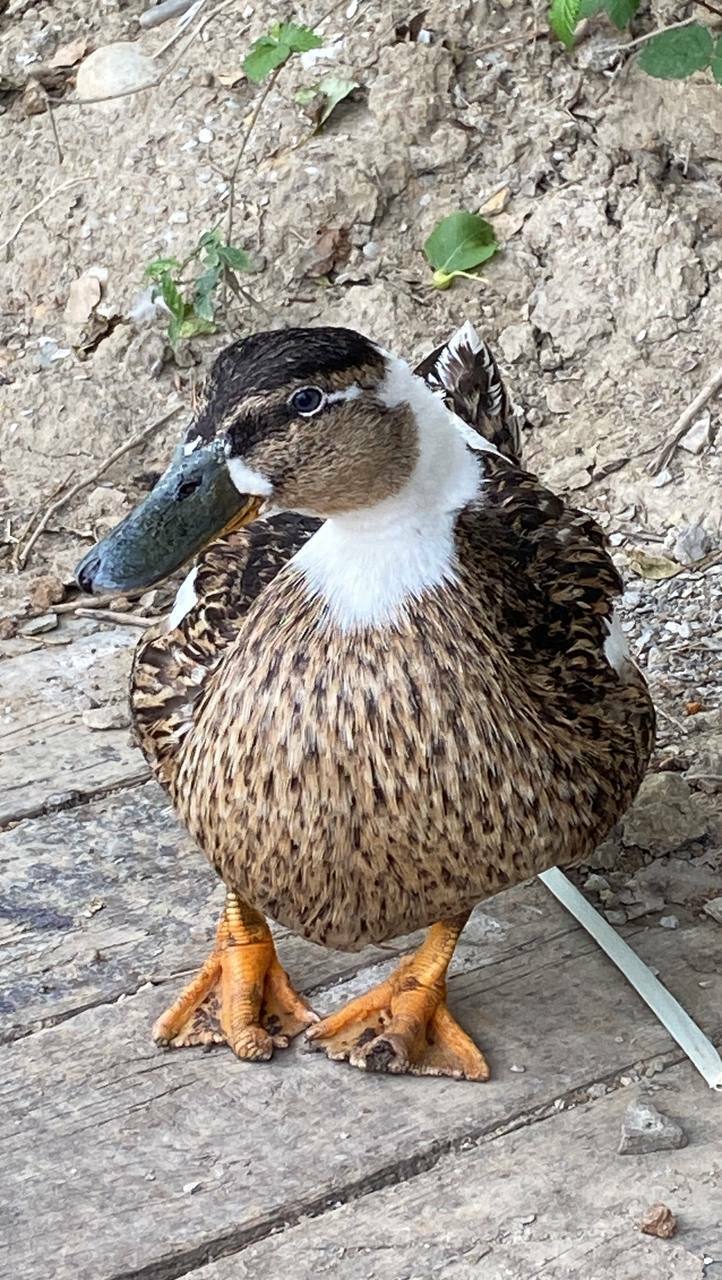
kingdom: Animalia
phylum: Chordata
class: Aves
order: Anseriformes
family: Anatidae
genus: Anas
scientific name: Anas platyrhynchos
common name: Mallard
